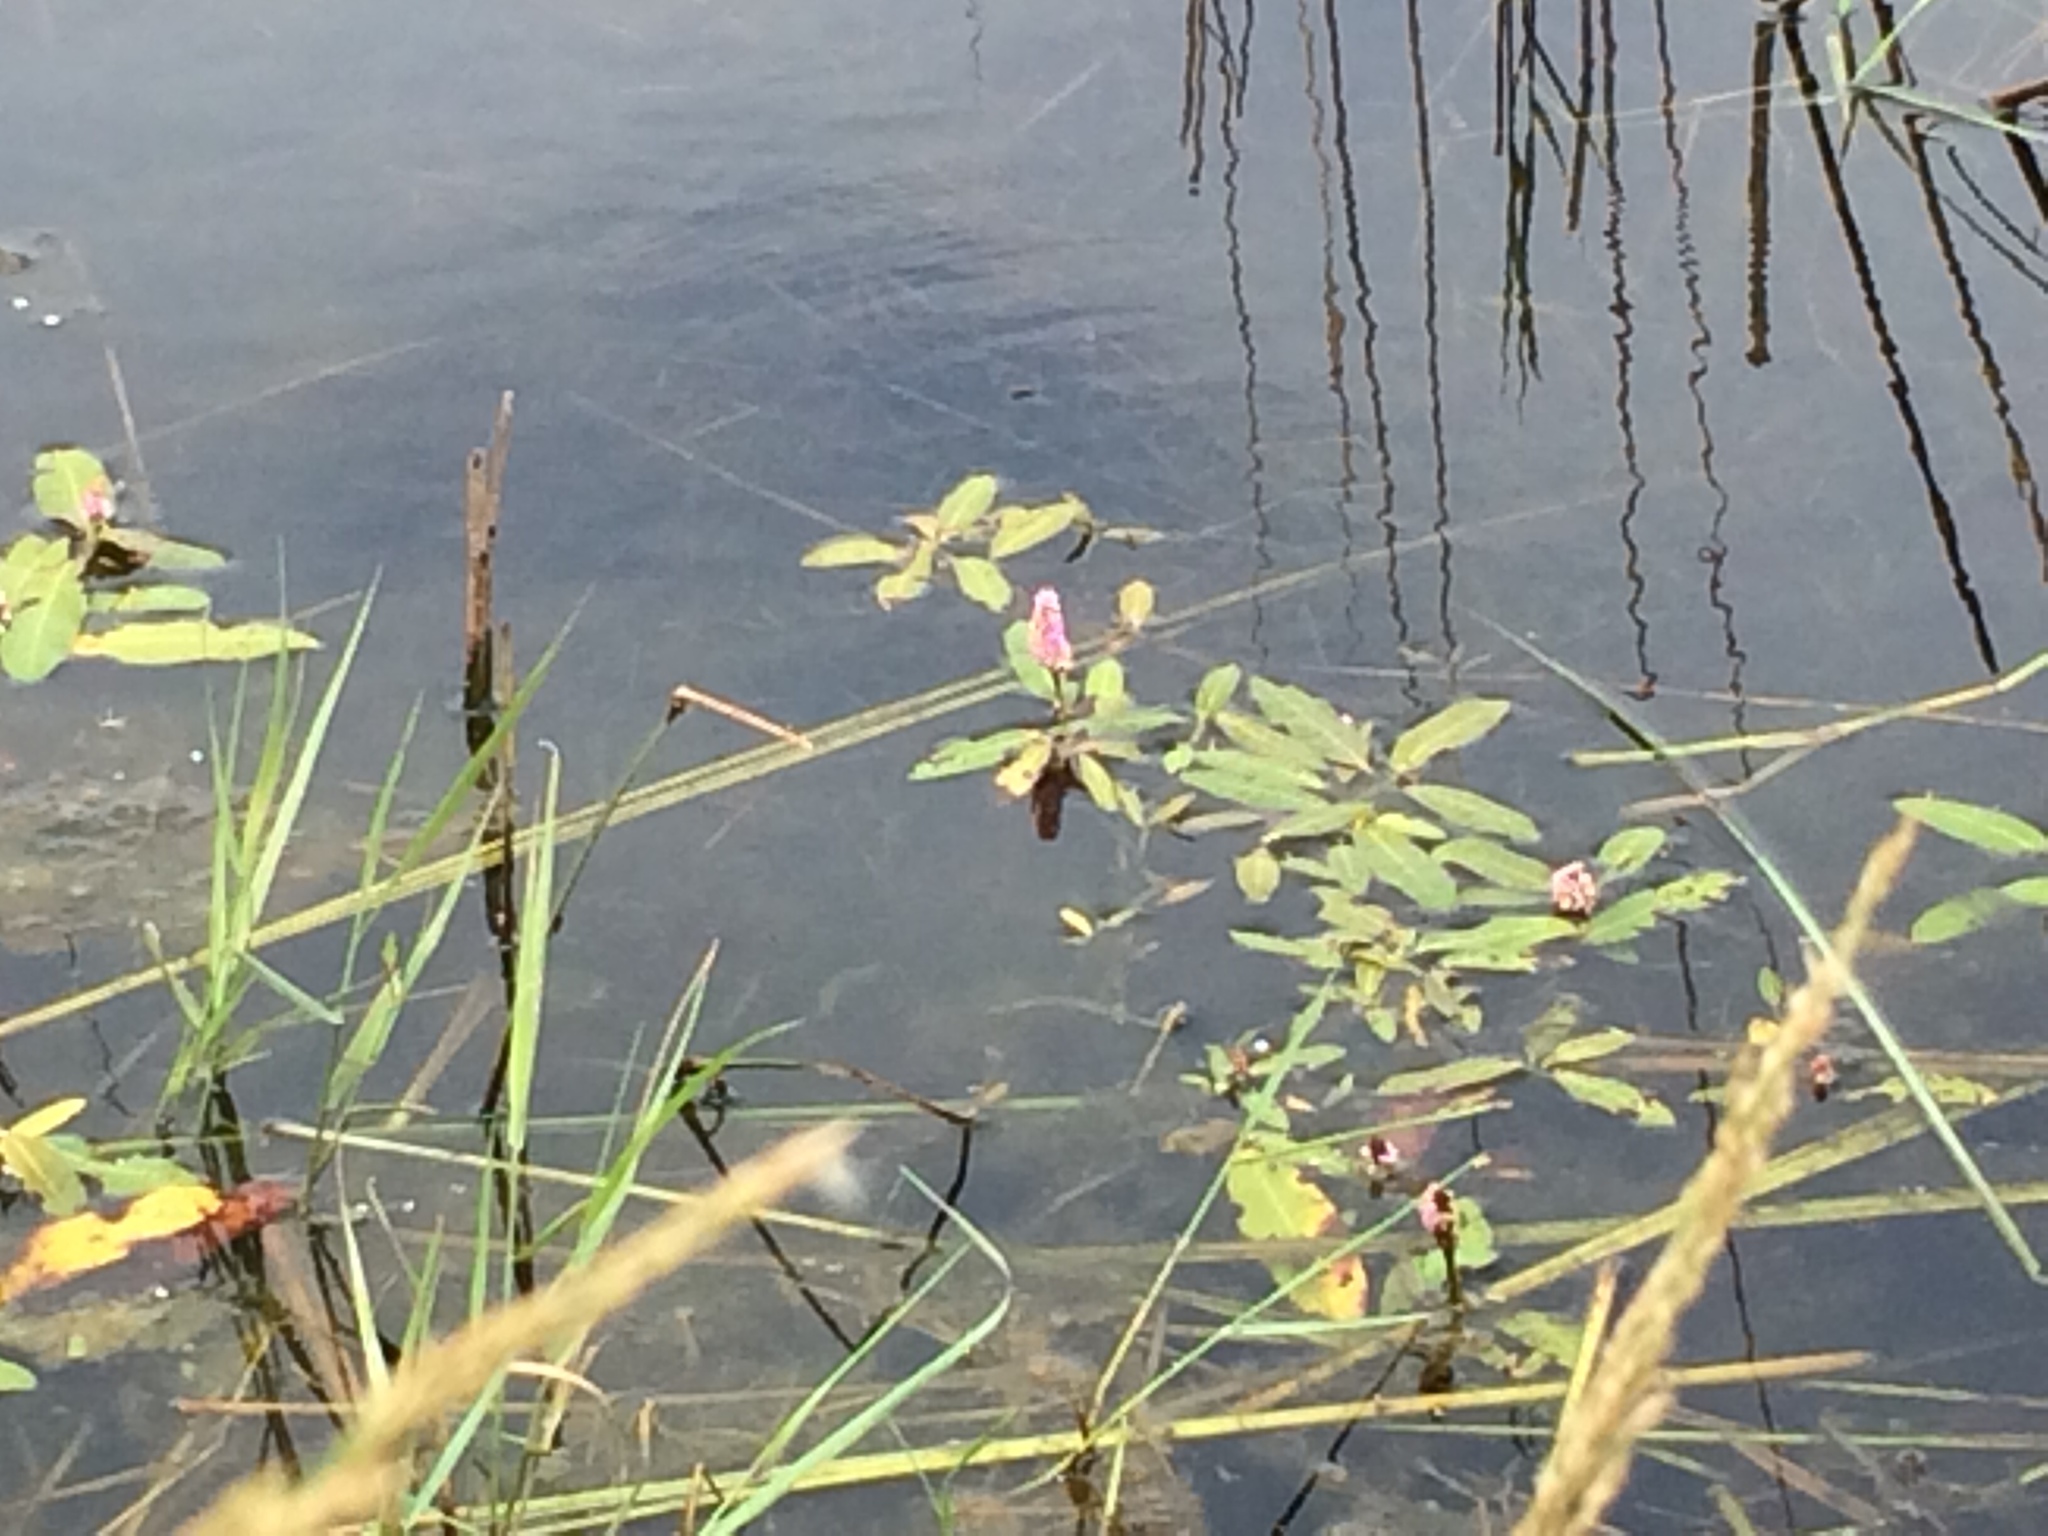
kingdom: Plantae
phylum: Tracheophyta
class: Magnoliopsida
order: Caryophyllales
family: Polygonaceae
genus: Persicaria
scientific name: Persicaria amphibia
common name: Amphibious bistort
